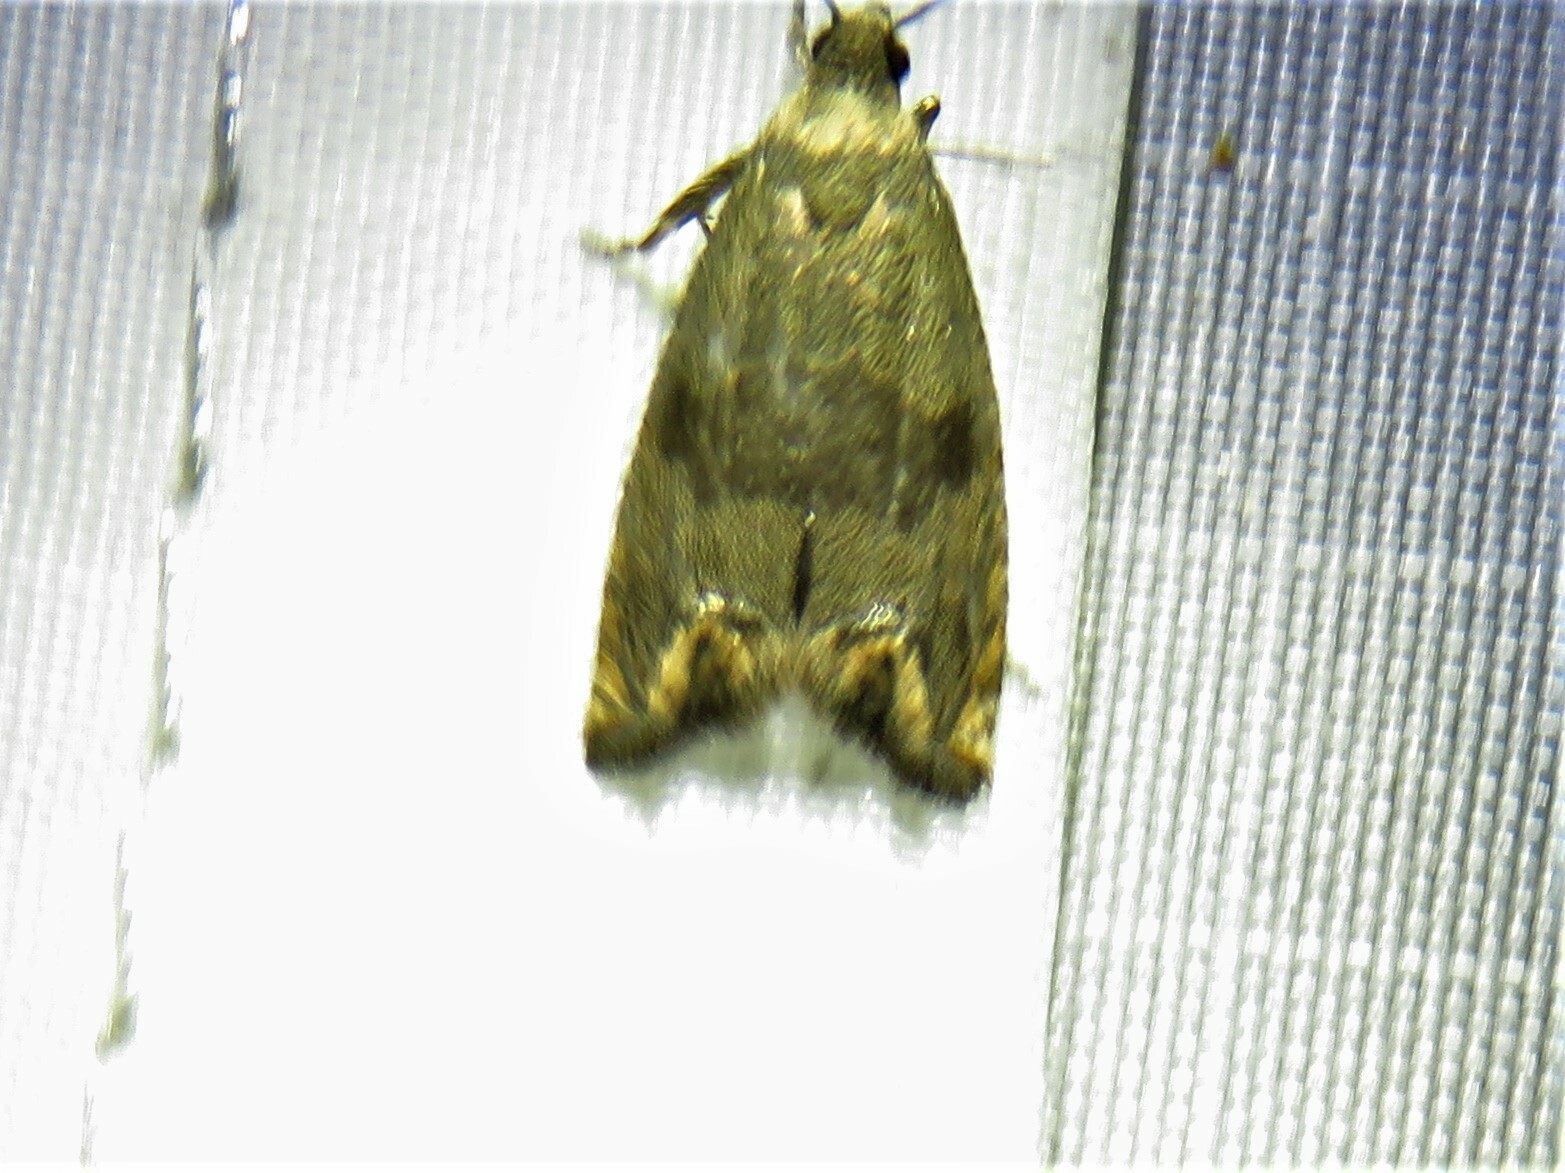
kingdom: Animalia
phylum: Arthropoda
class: Insecta
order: Lepidoptera
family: Tortricidae
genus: Epiblema
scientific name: Epiblema strenuana
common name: Ragweed borer moth
